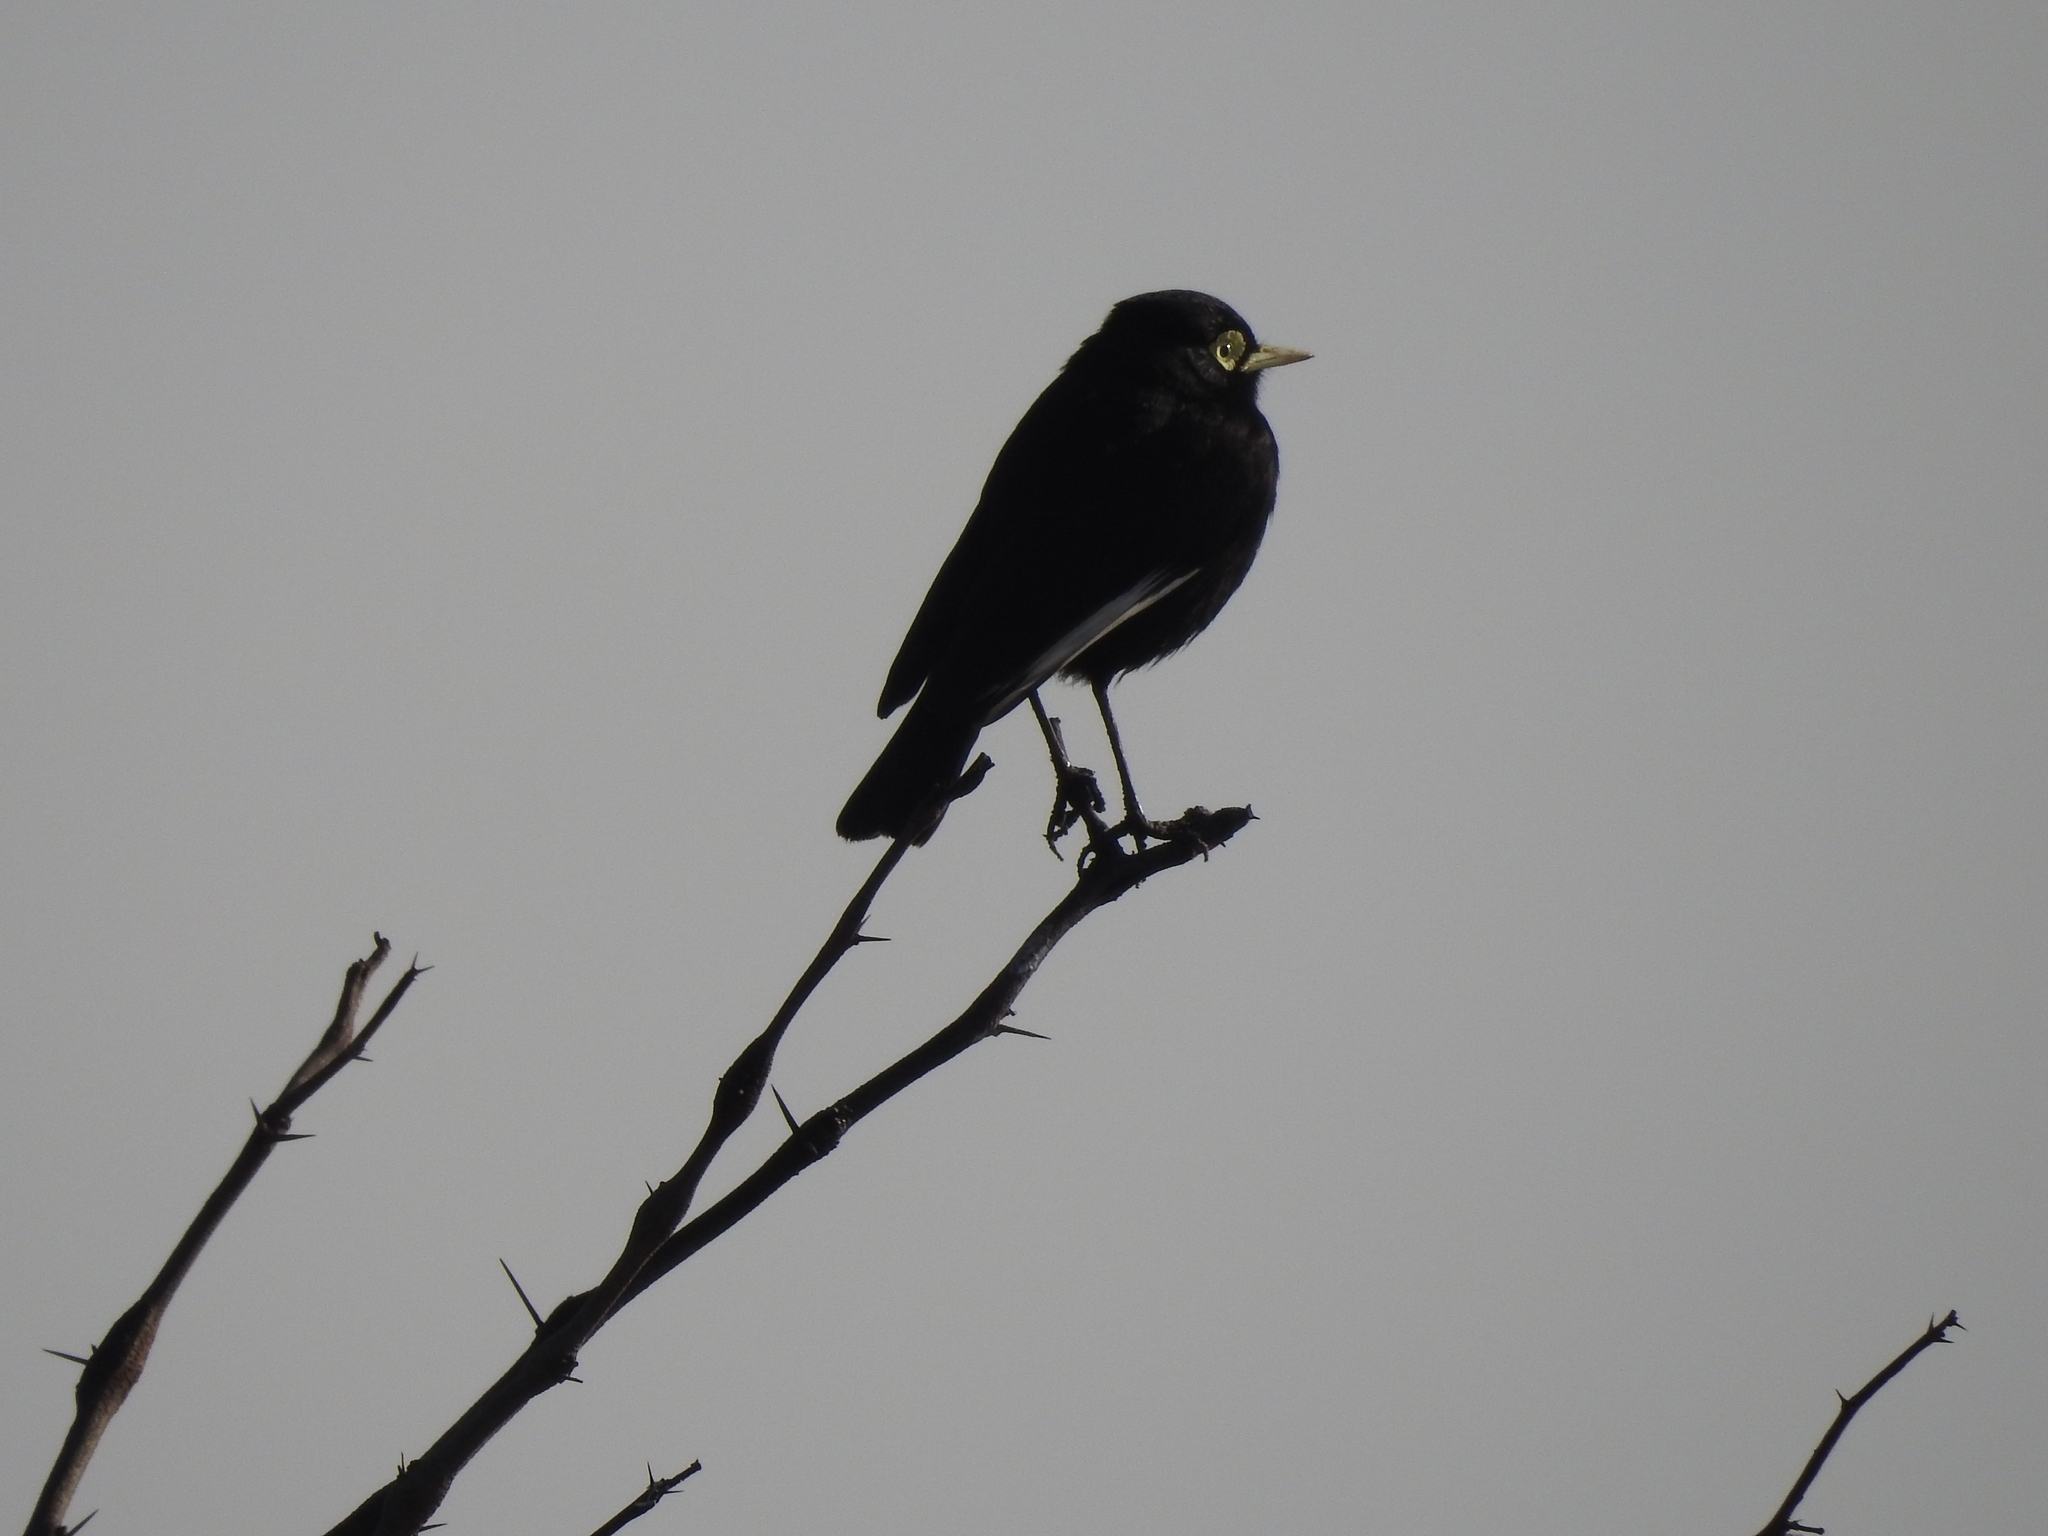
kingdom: Animalia
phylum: Chordata
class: Aves
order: Passeriformes
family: Tyrannidae
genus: Hymenops
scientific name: Hymenops perspicillatus
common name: Spectacled tyrant
